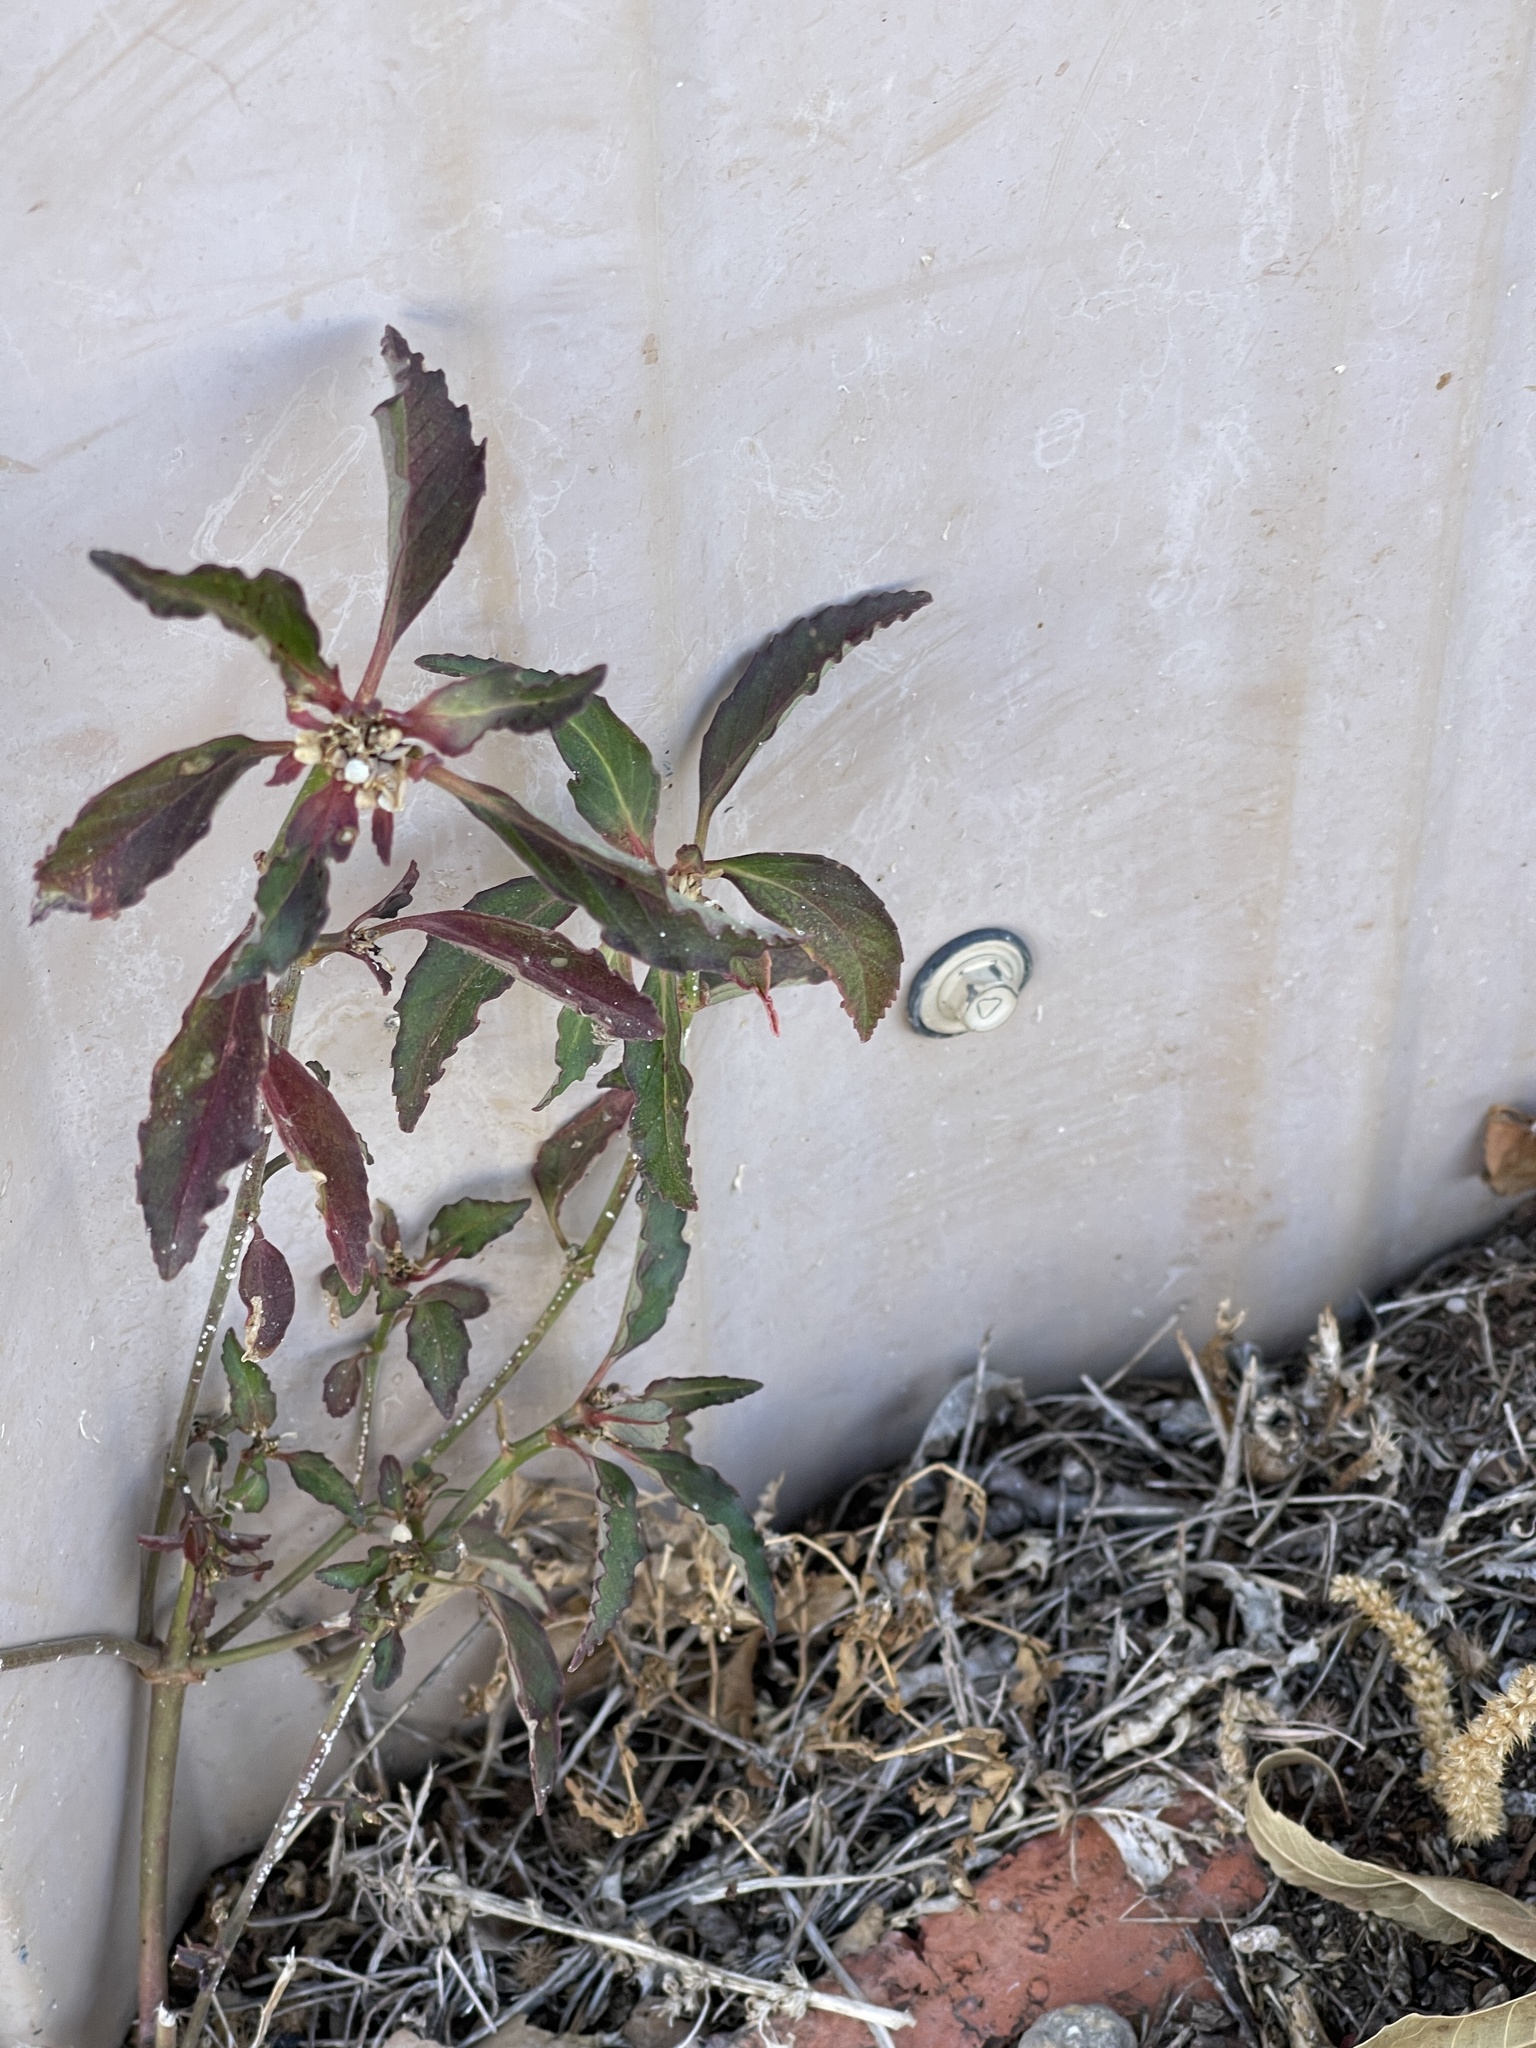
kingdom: Plantae
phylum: Tracheophyta
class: Magnoliopsida
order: Malpighiales
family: Euphorbiaceae
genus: Euphorbia
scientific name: Euphorbia davidii
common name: David's spurge
